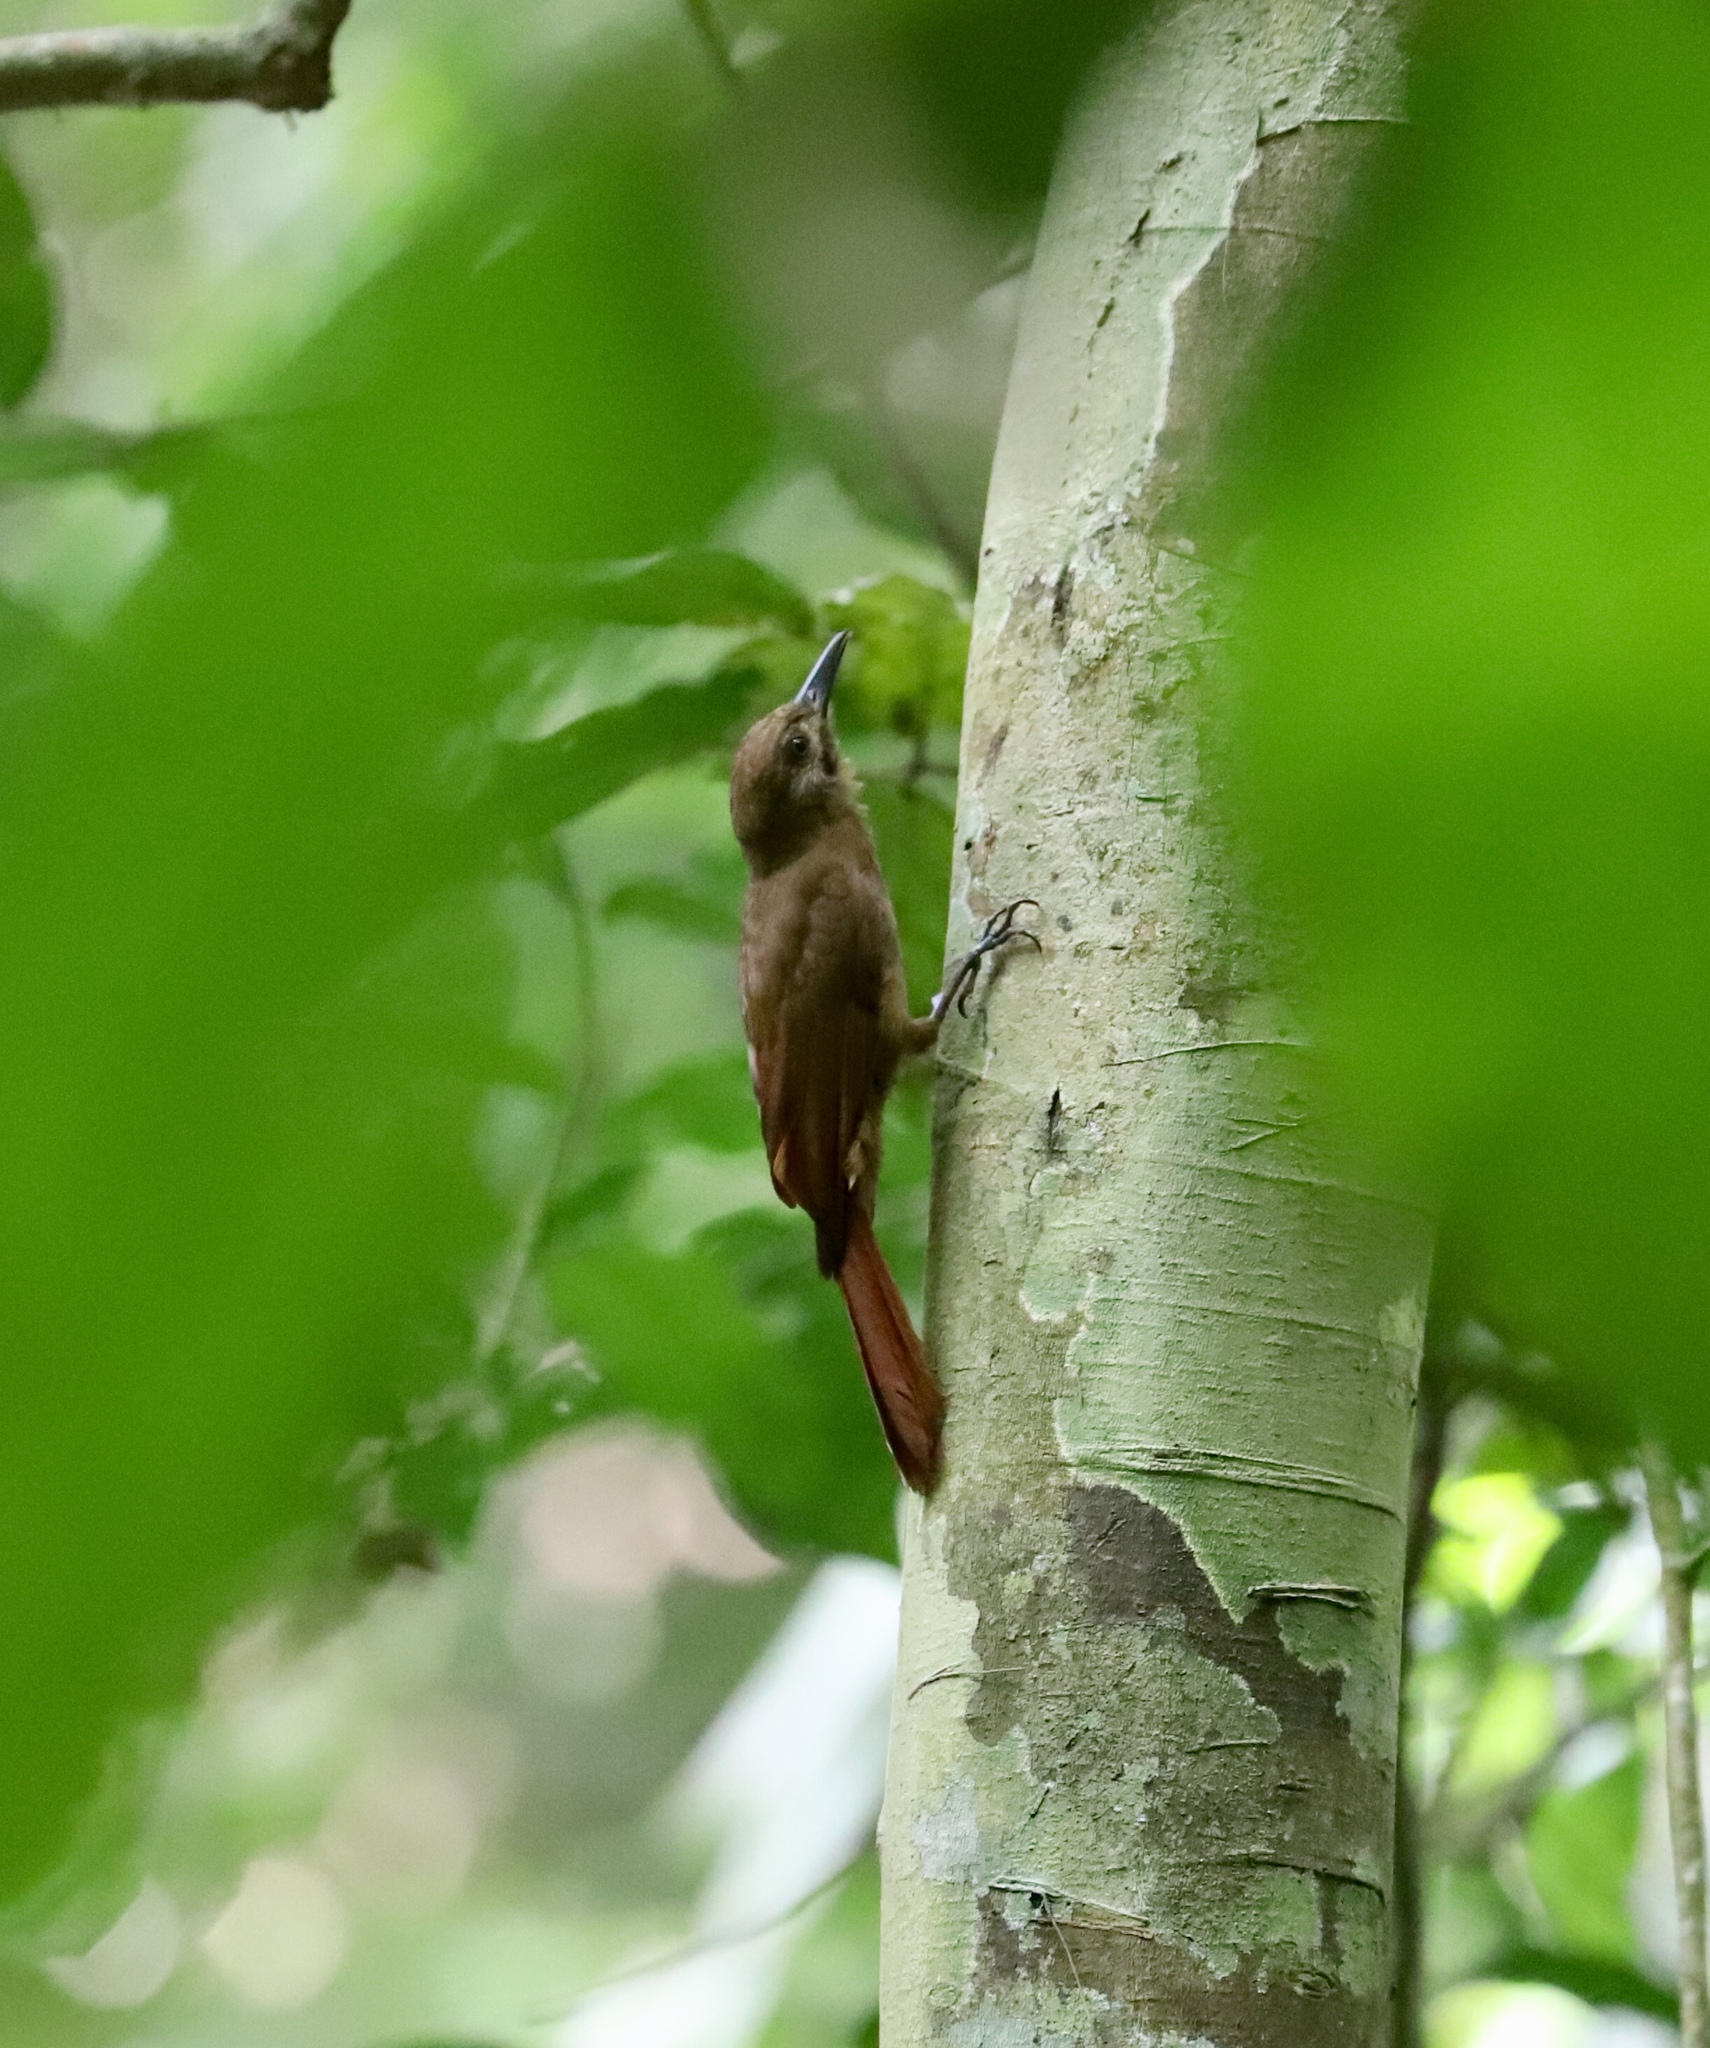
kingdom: Animalia
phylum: Chordata
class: Aves
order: Passeriformes
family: Furnariidae
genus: Dendrocincla
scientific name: Dendrocincla fuliginosa
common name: Plain-brown woodcreeper
